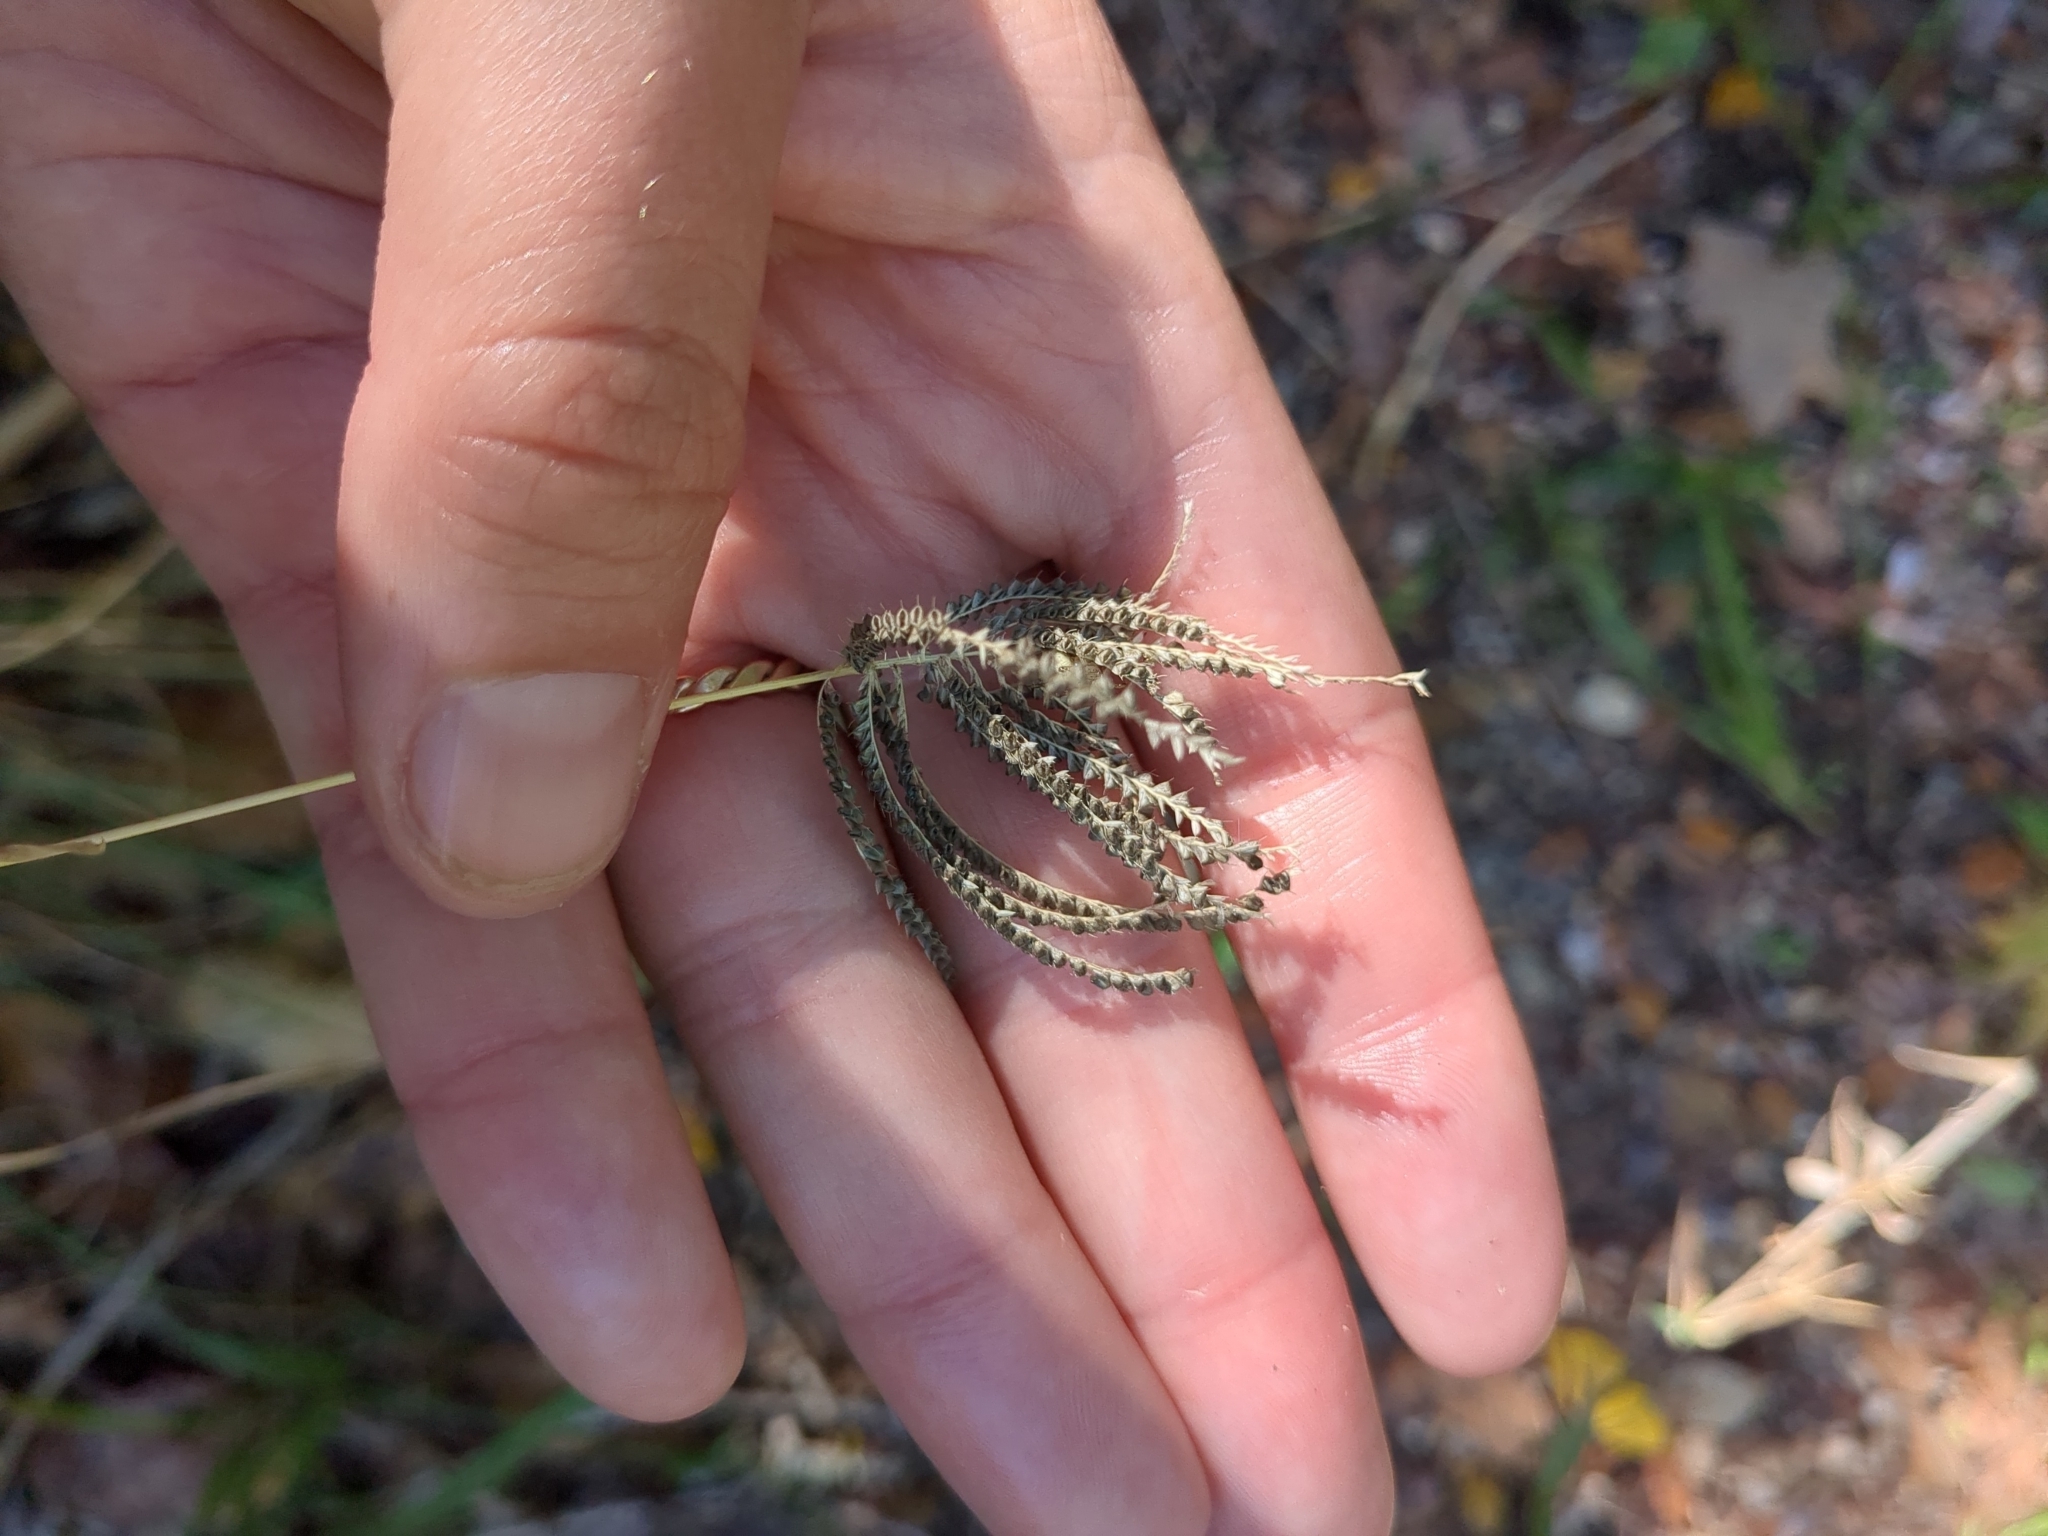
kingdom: Plantae
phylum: Tracheophyta
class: Liliopsida
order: Poales
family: Poaceae
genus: Chloris
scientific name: Chloris cucullata
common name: Hooded windmill grass
